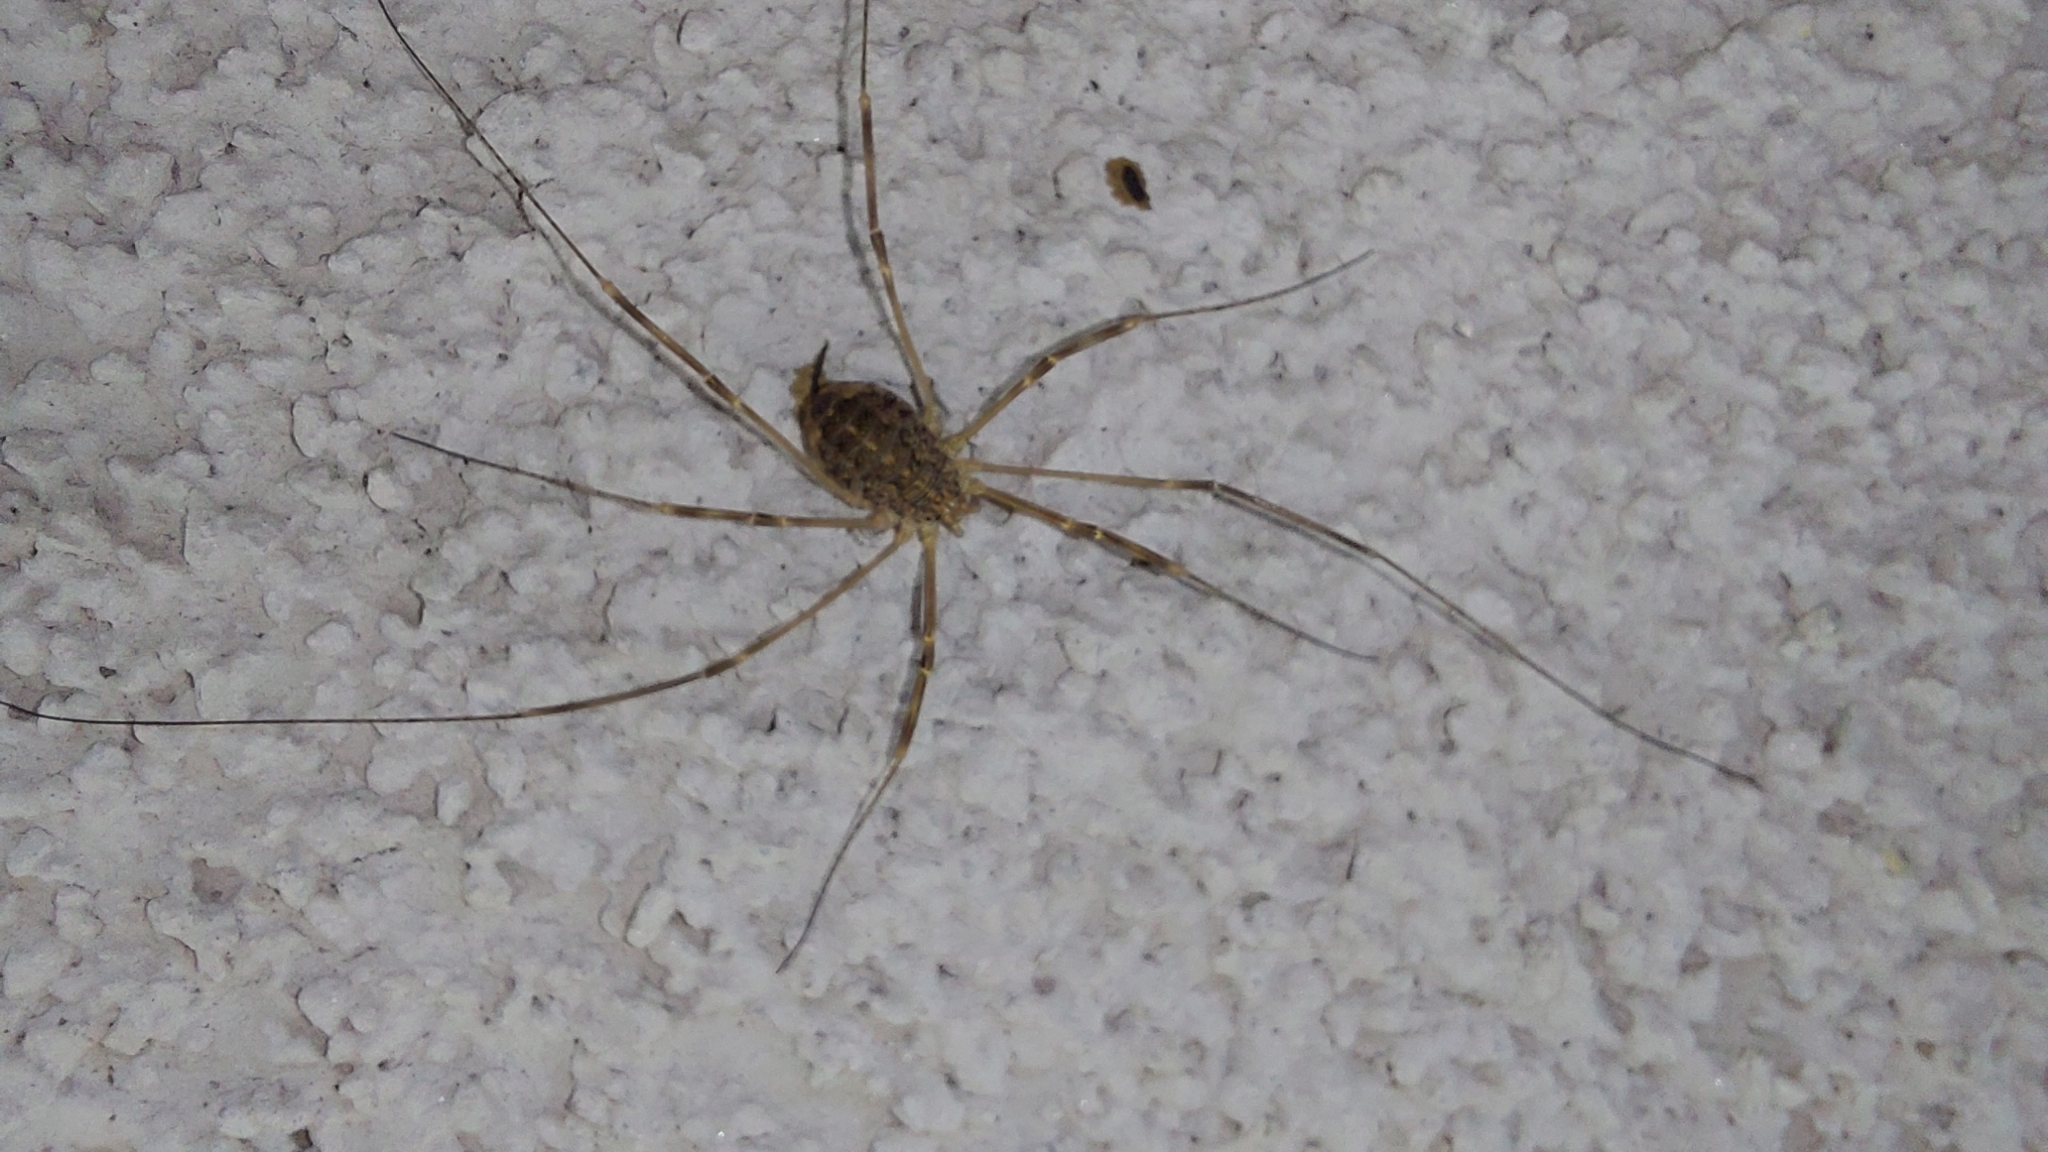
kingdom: Animalia
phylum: Arthropoda
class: Arachnida
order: Opiliones
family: Phalangiidae
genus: Opilio
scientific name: Opilio saxatilis
